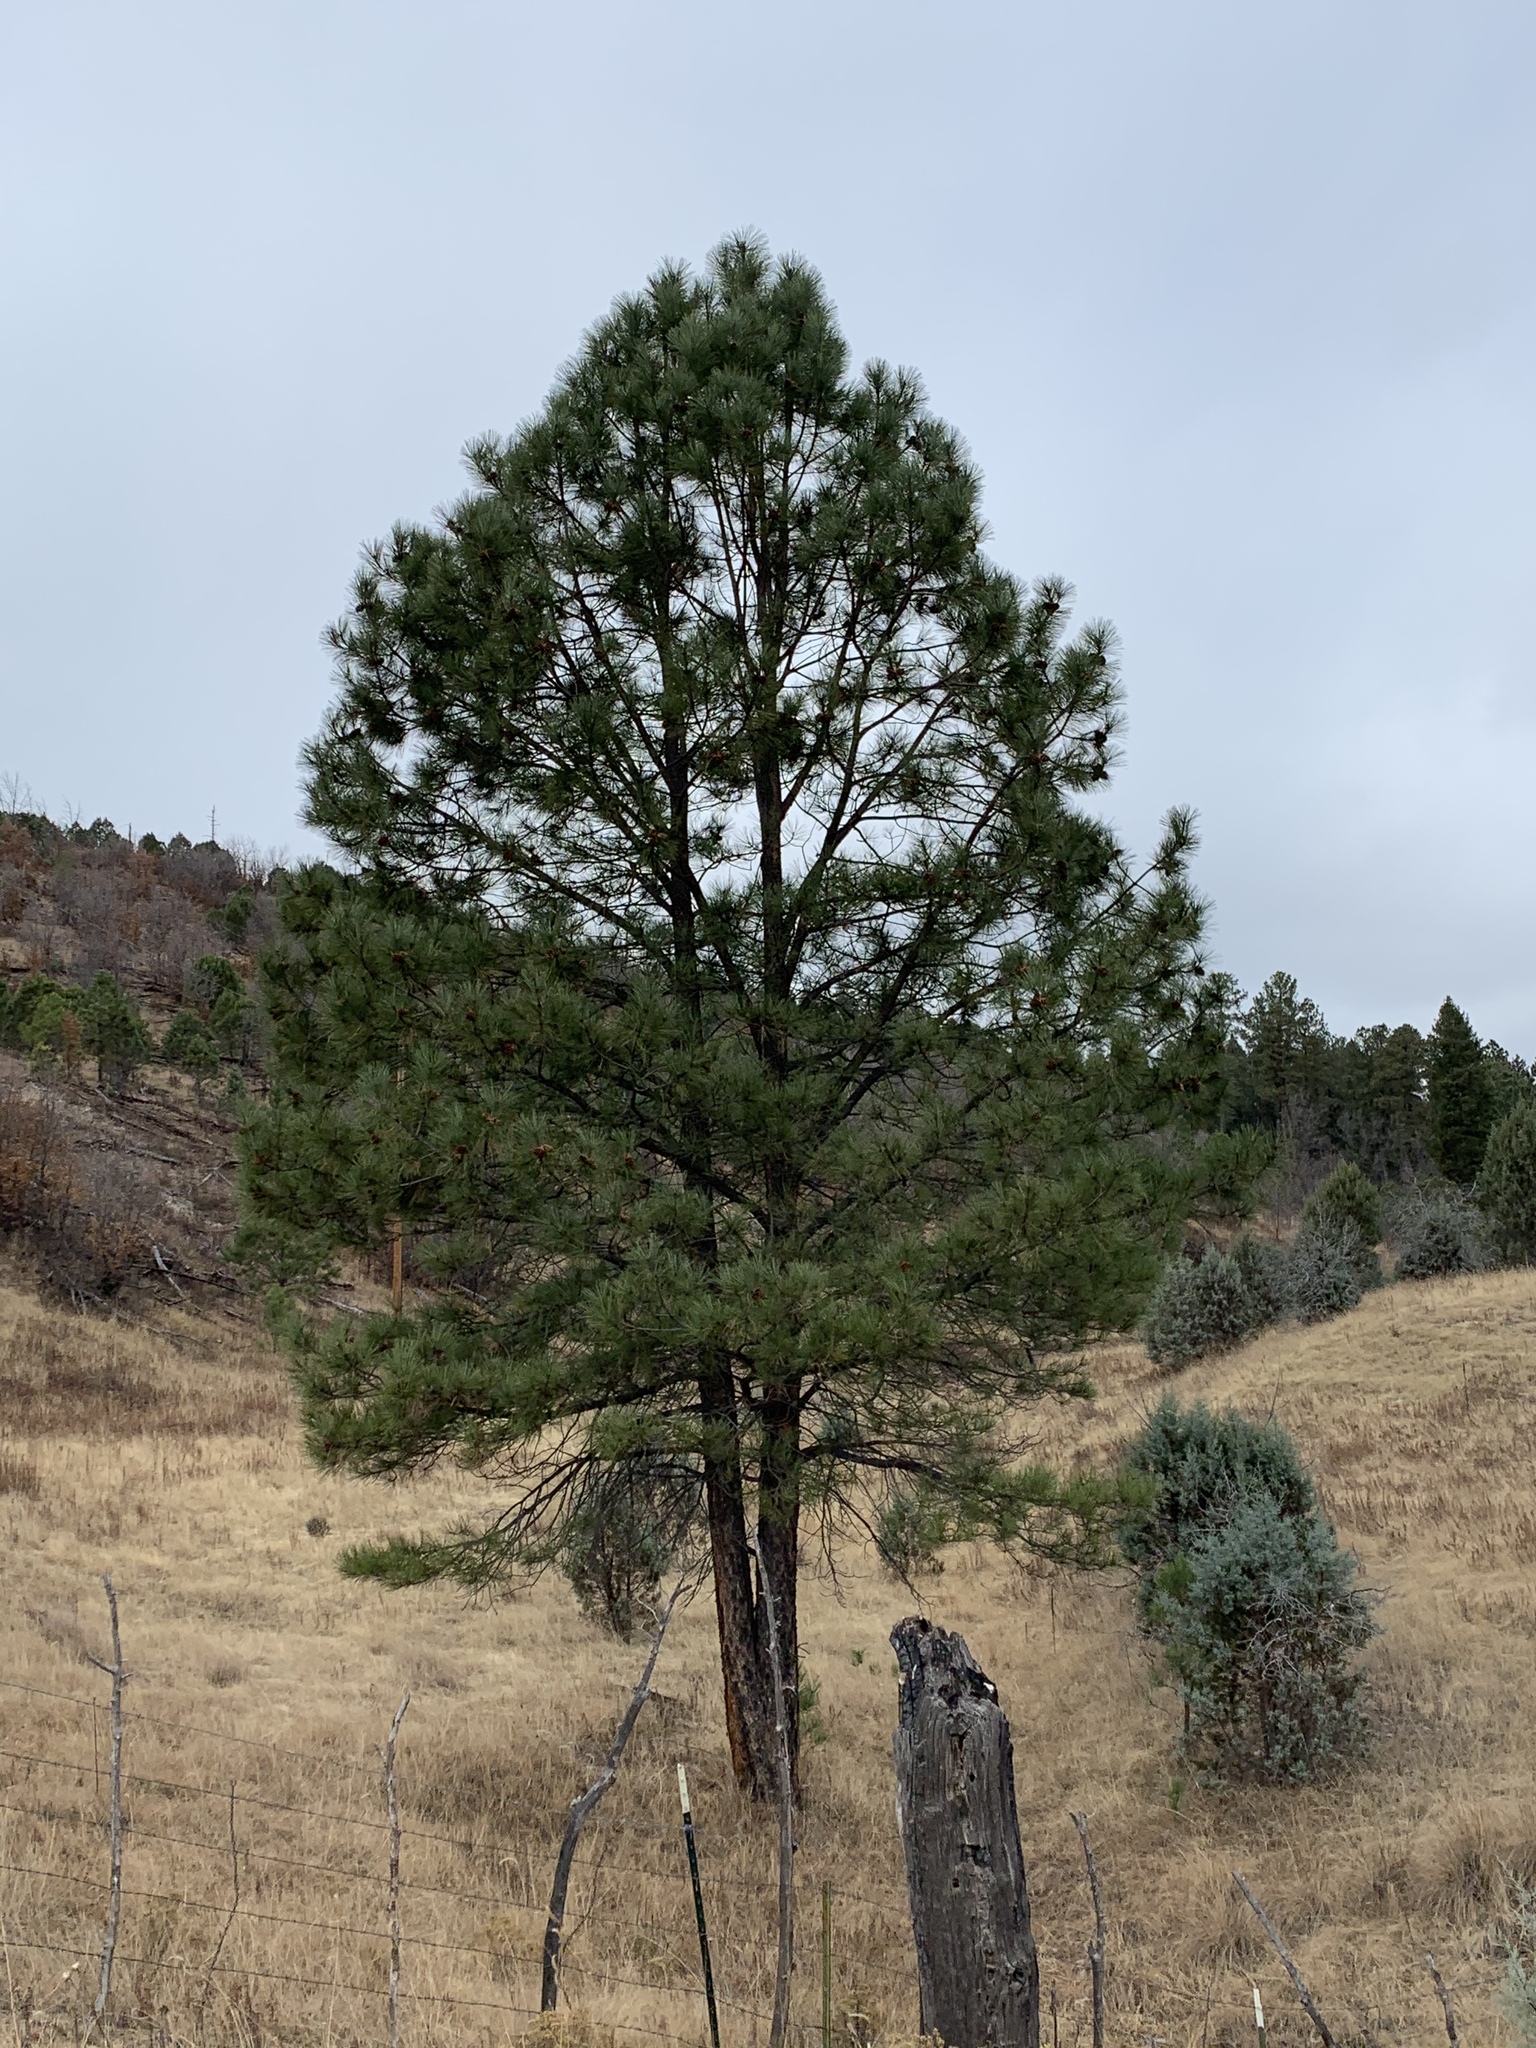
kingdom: Plantae
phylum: Tracheophyta
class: Pinopsida
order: Pinales
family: Pinaceae
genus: Pinus
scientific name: Pinus ponderosa
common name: Western yellow-pine
